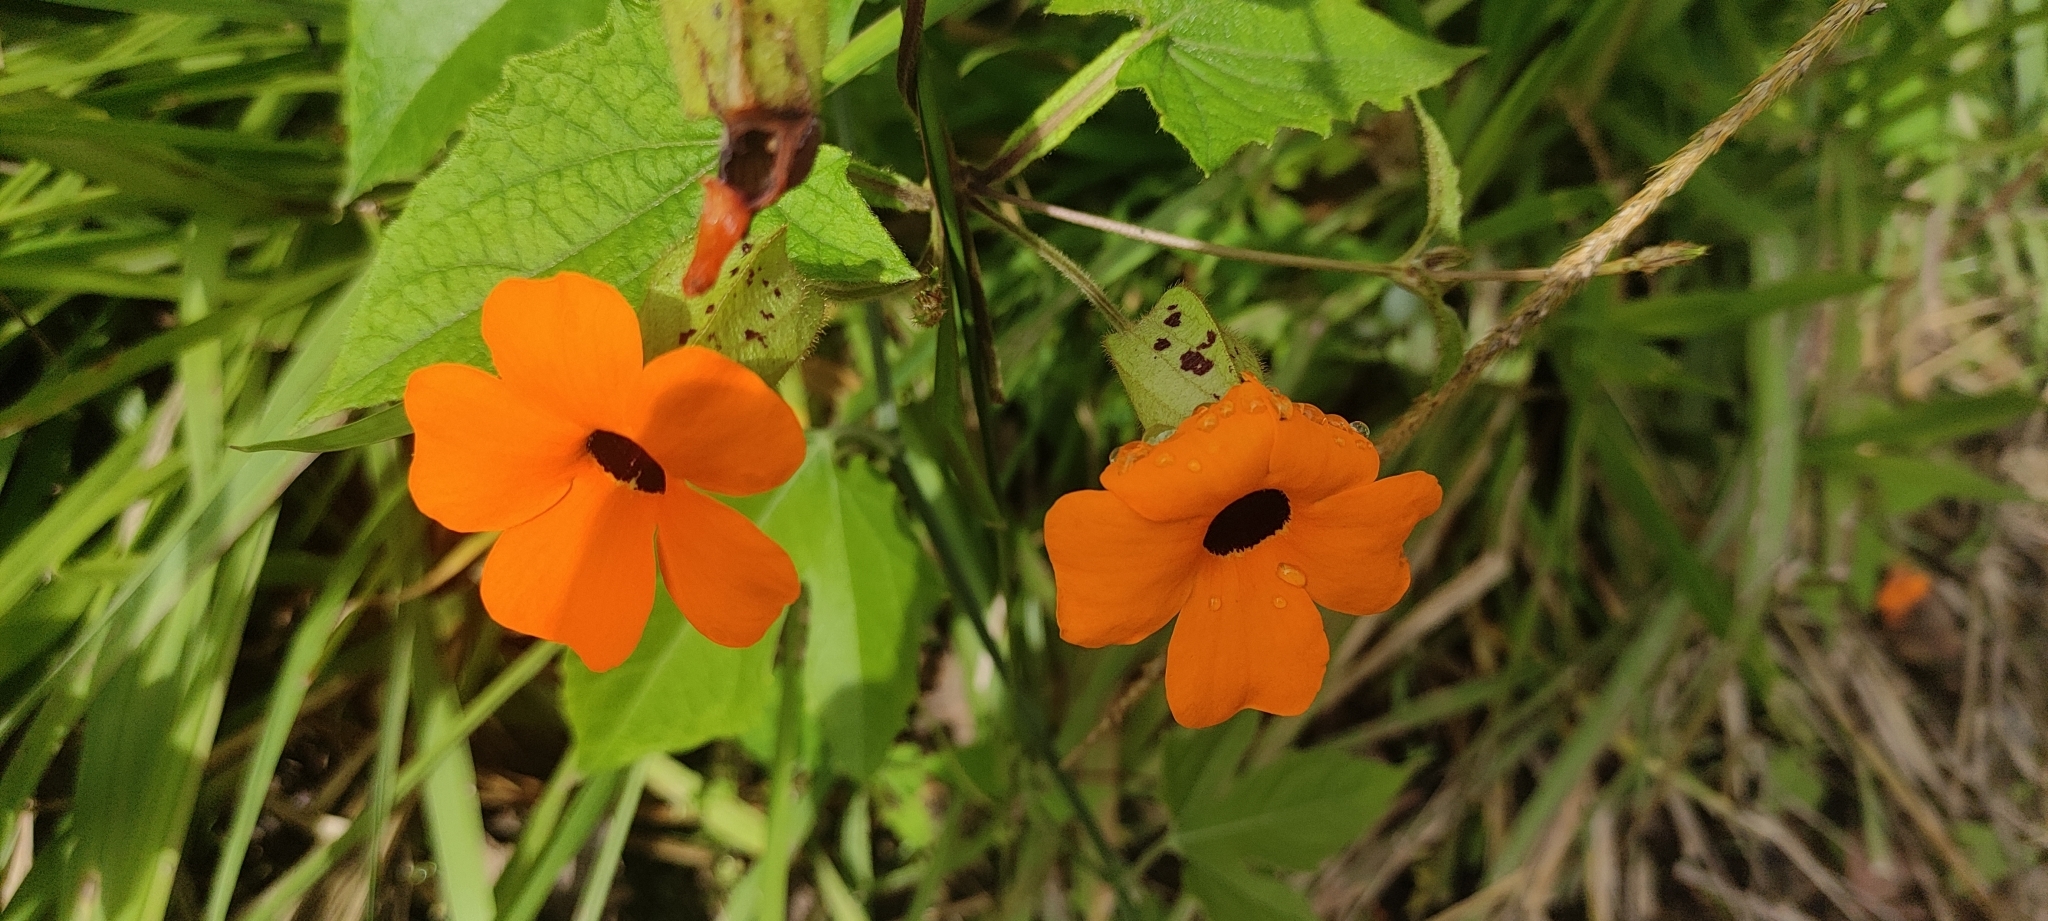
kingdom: Plantae
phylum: Tracheophyta
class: Magnoliopsida
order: Lamiales
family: Acanthaceae
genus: Thunbergia
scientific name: Thunbergia alata
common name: Blackeyed susan vine
